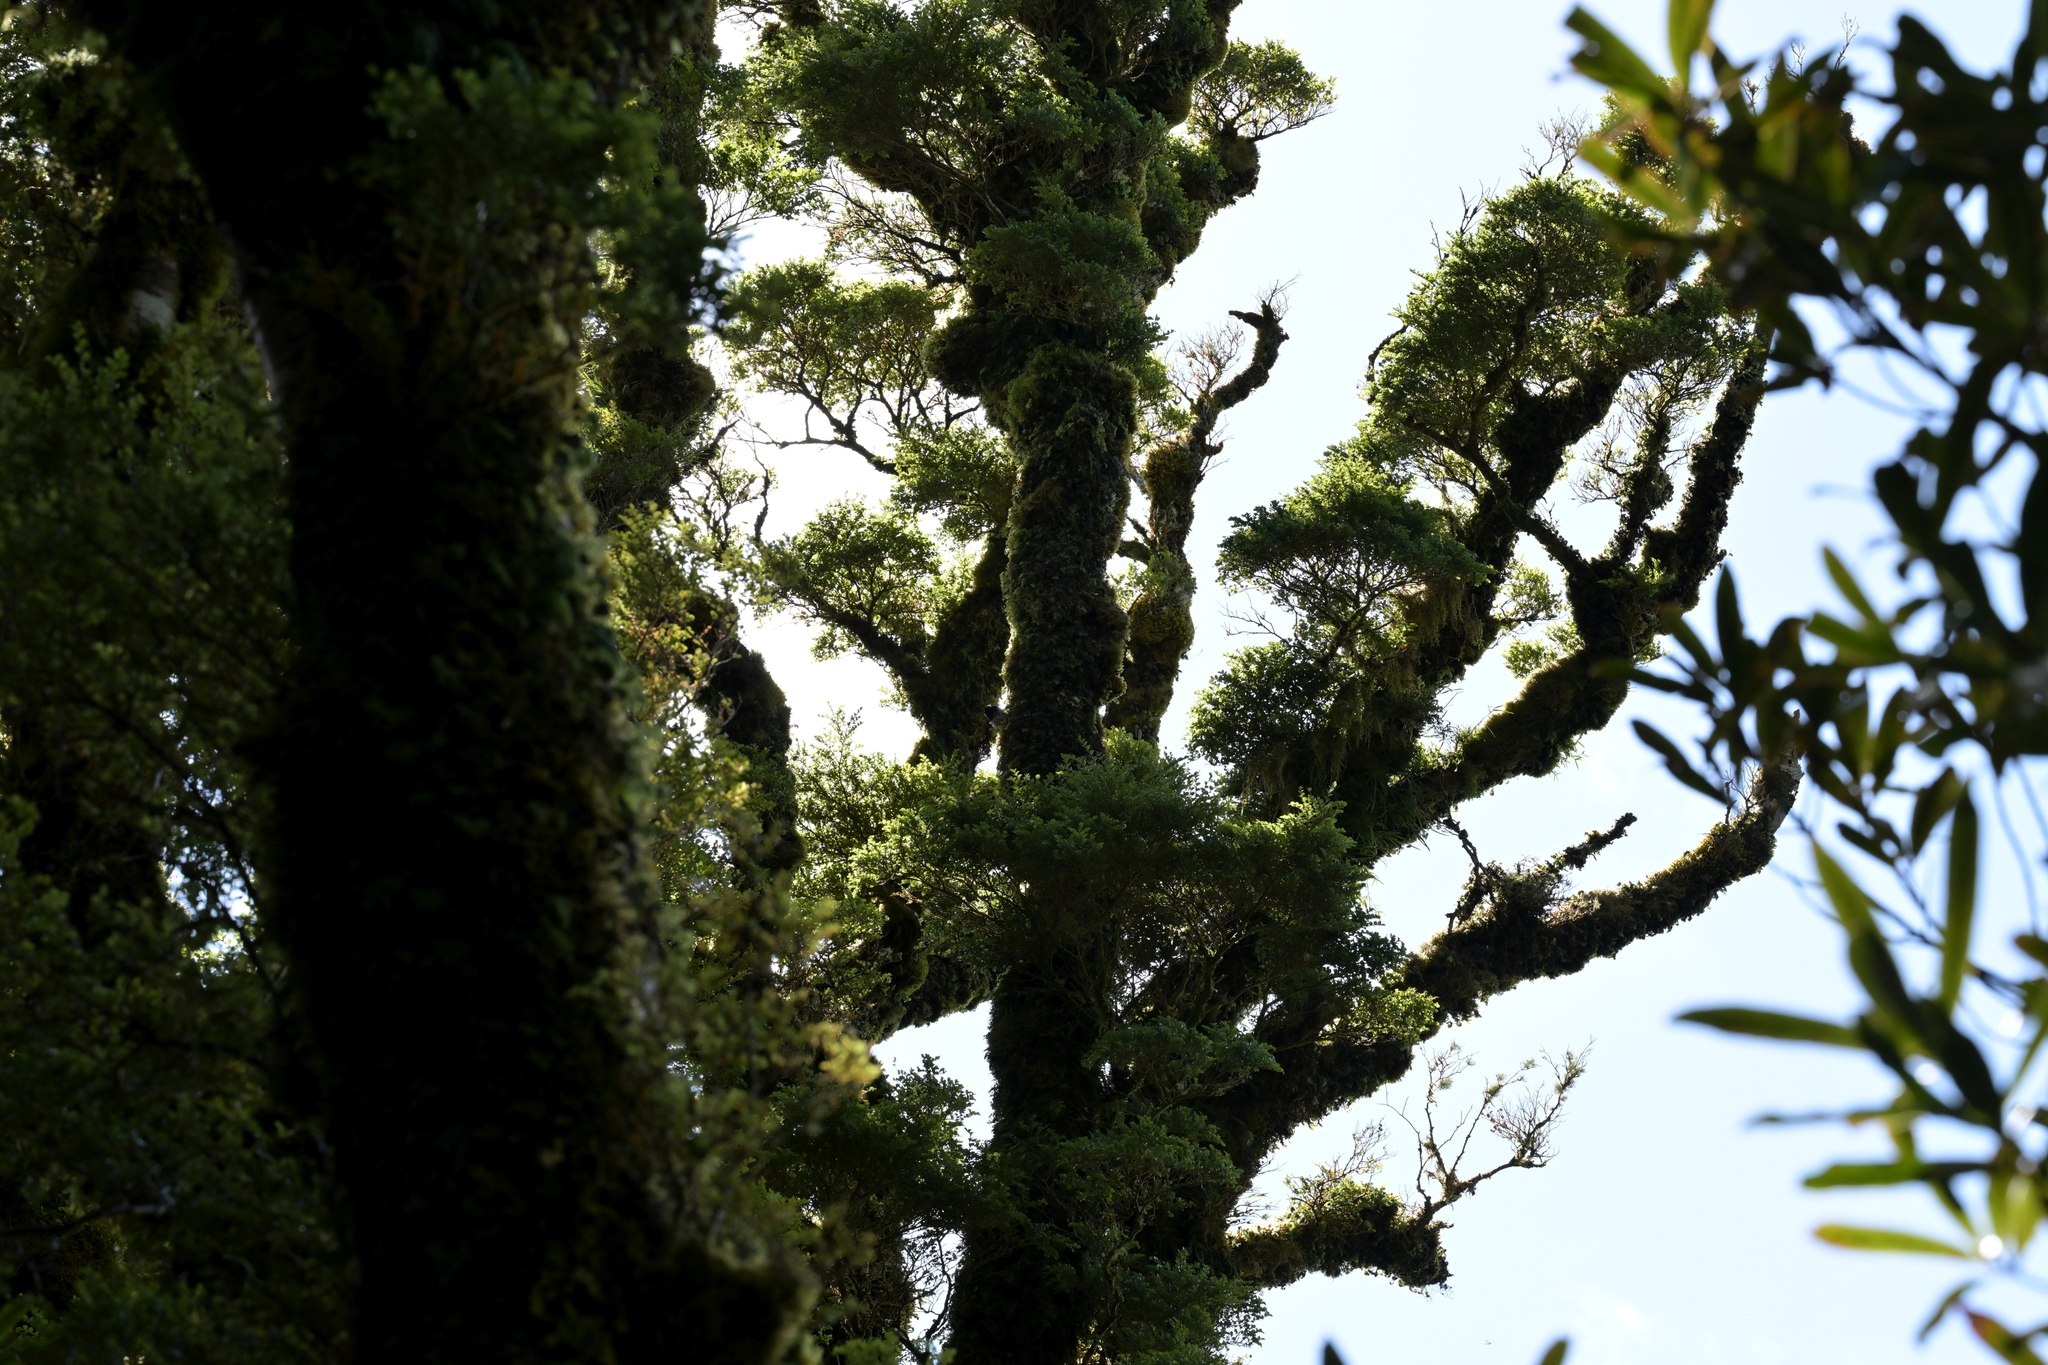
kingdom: Animalia
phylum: Chordata
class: Aves
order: Passeriformes
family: Petroicidae
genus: Petroica
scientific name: Petroica macrocephala
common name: Tomtit
